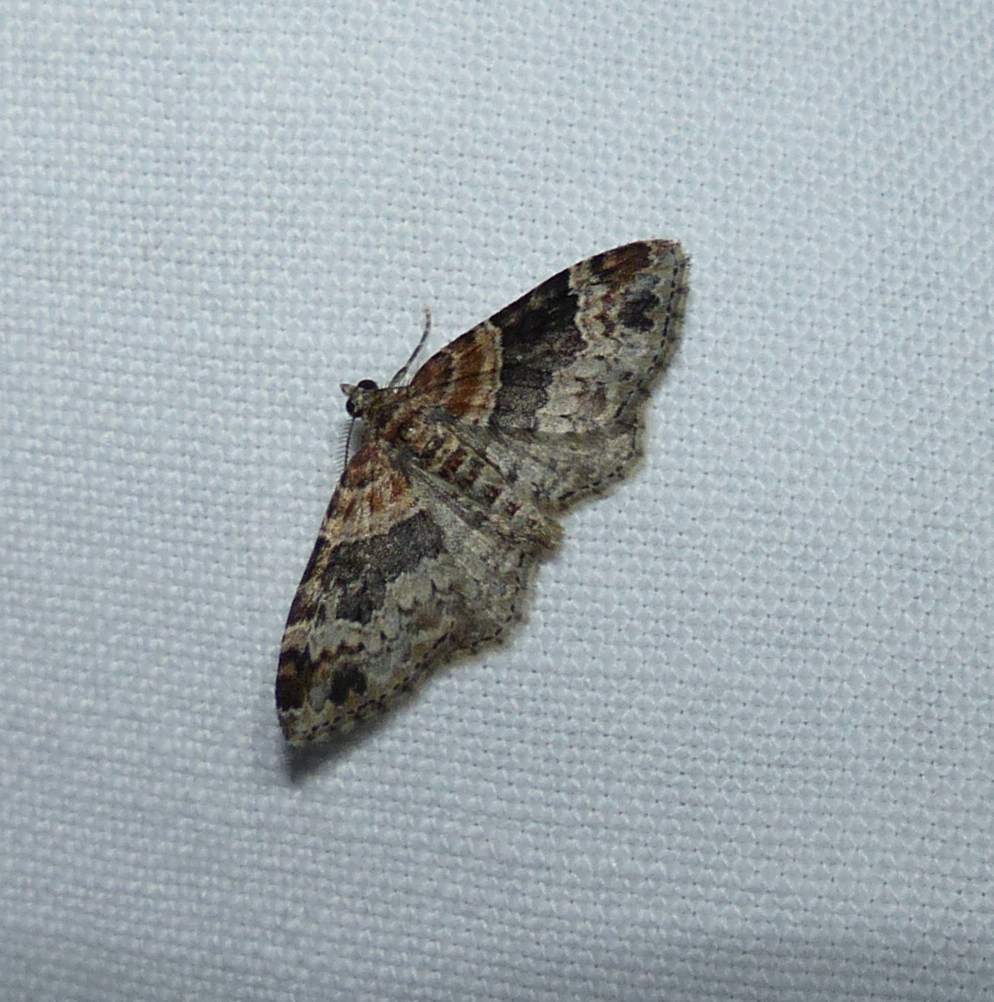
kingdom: Animalia
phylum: Arthropoda
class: Insecta
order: Lepidoptera
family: Geometridae
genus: Xanthorhoe
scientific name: Xanthorhoe ferrugata
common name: Dark-barred twin-spot carpet
